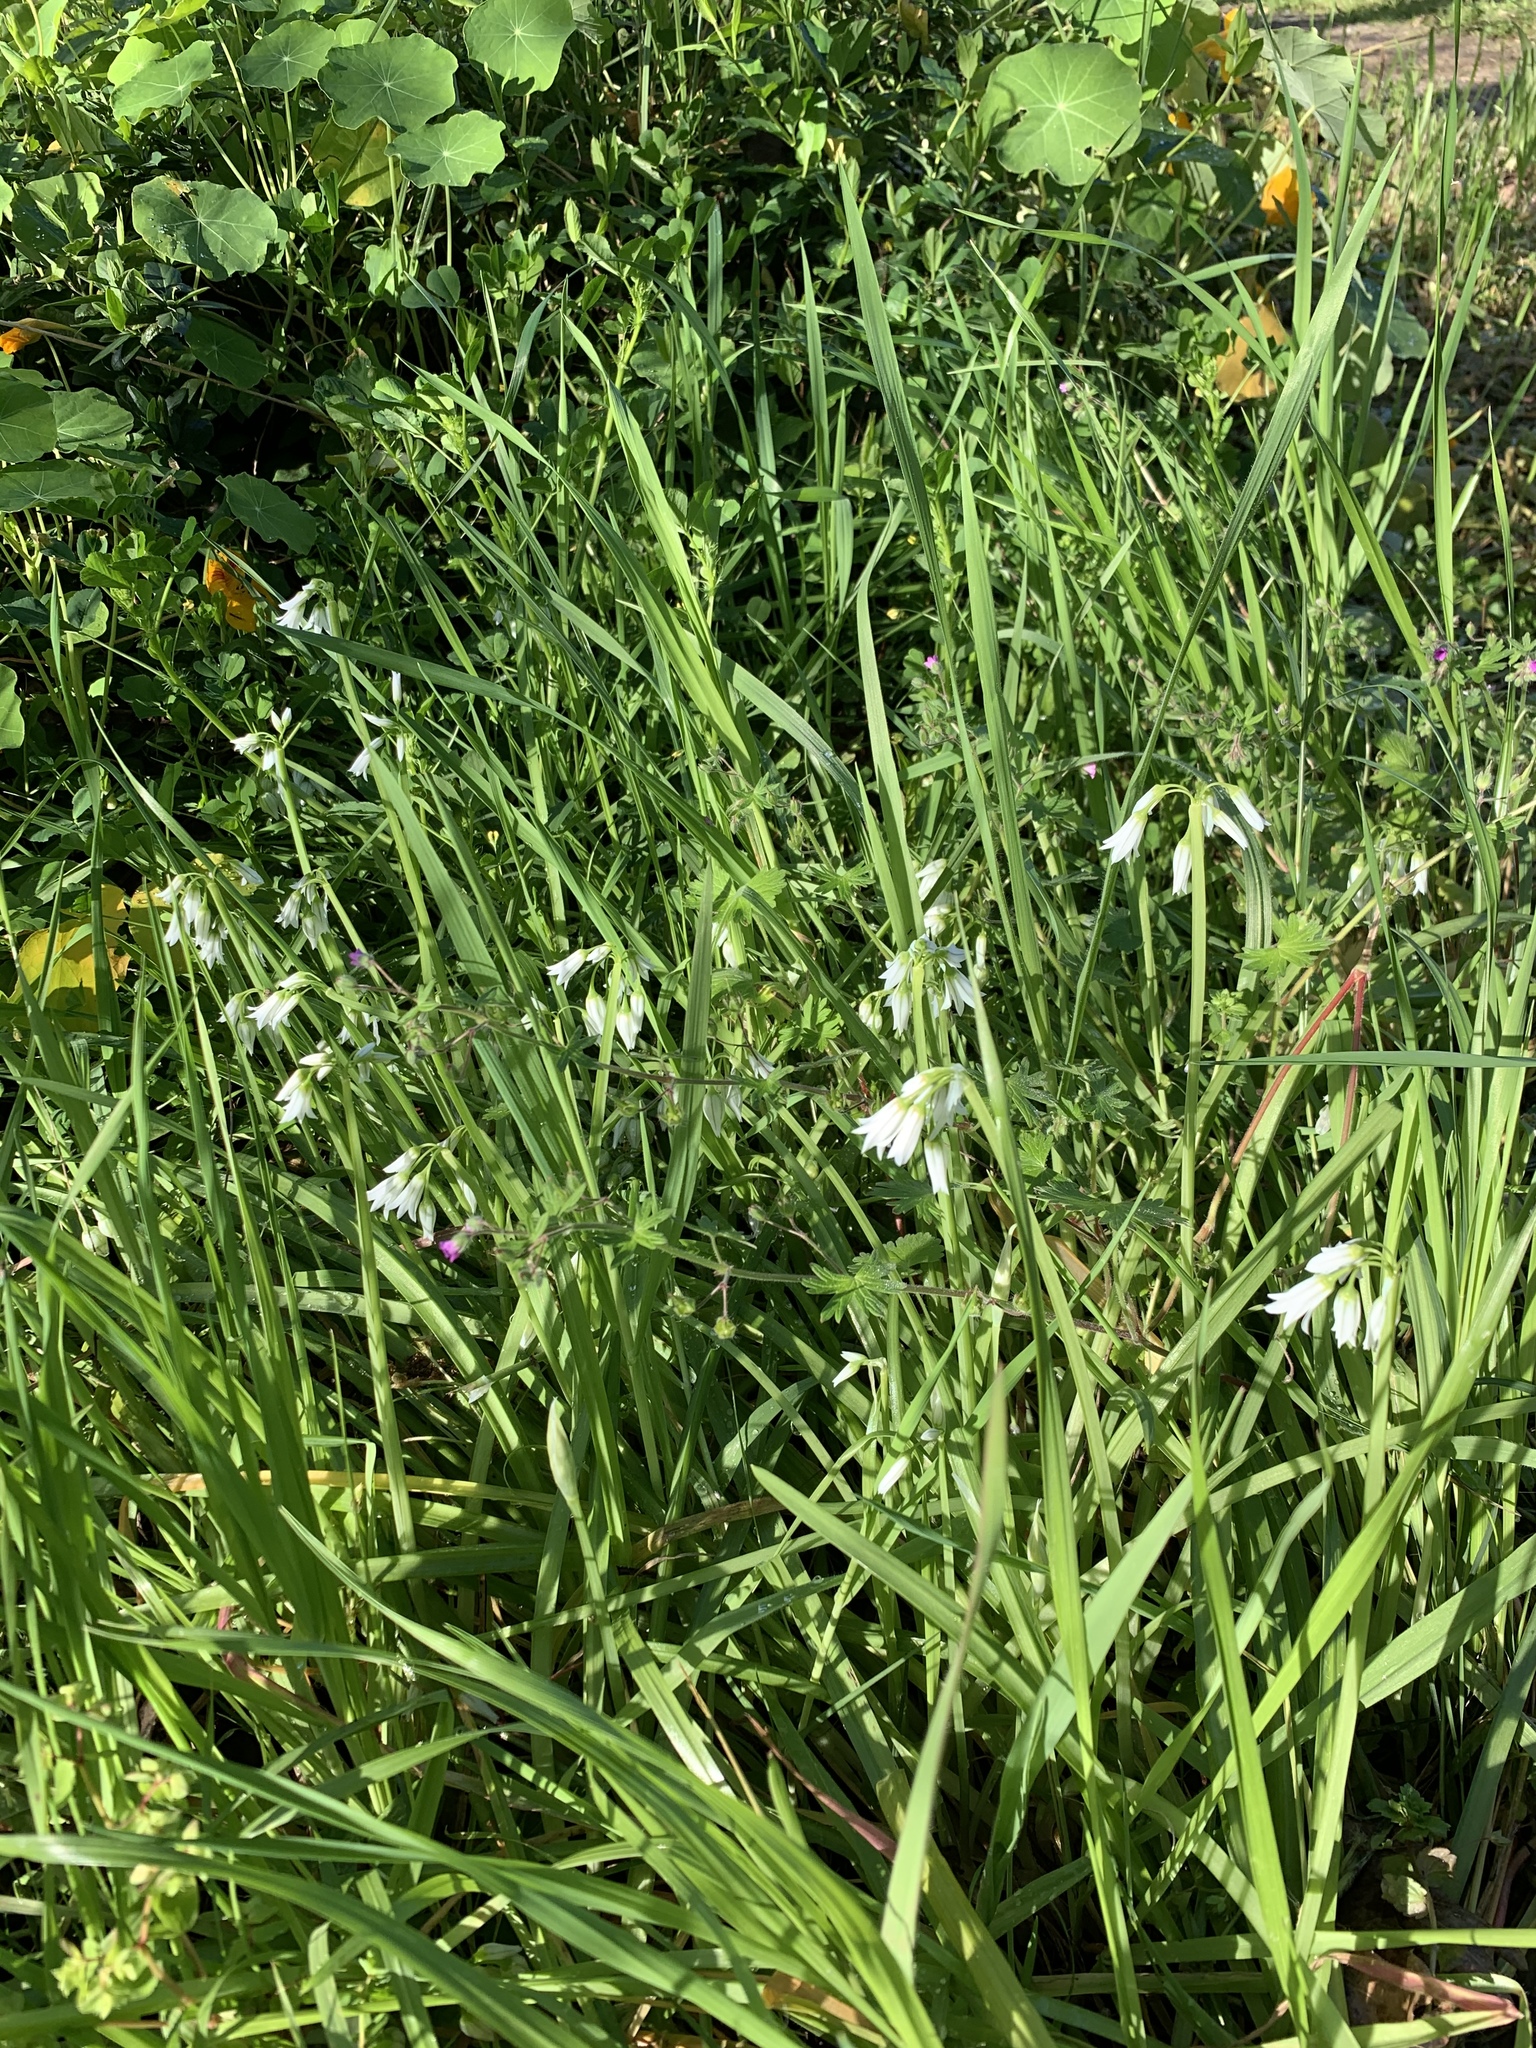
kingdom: Plantae
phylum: Tracheophyta
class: Liliopsida
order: Asparagales
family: Amaryllidaceae
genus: Allium
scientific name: Allium triquetrum
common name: Three-cornered garlic
